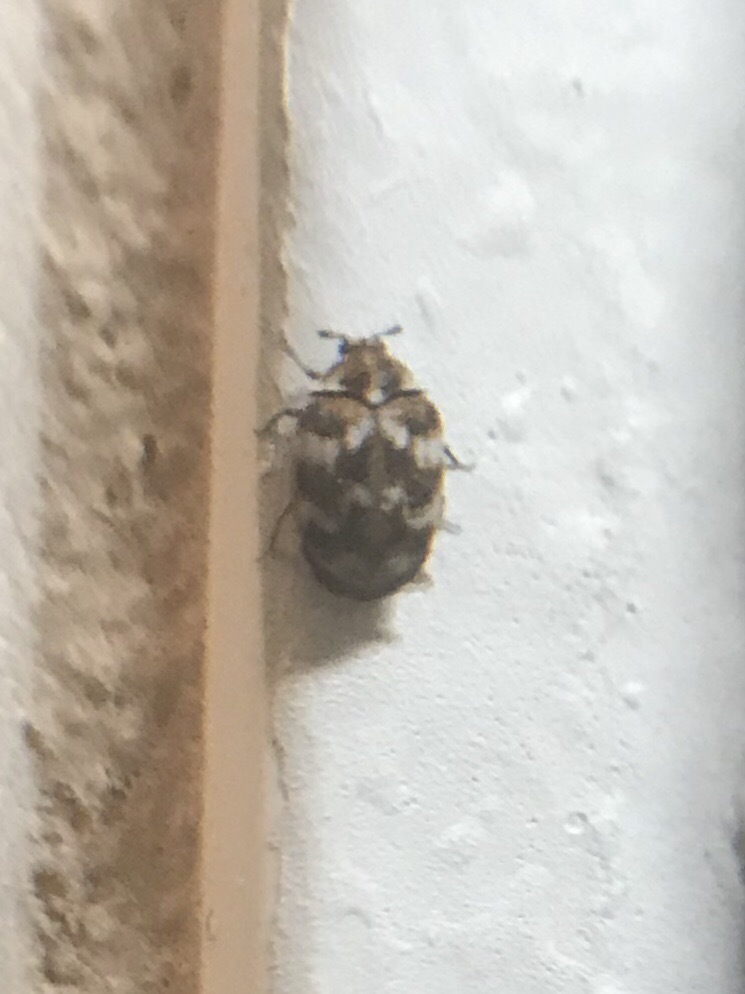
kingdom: Animalia
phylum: Arthropoda
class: Insecta
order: Coleoptera
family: Dermestidae
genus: Anthrenus
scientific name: Anthrenus verbasci
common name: Varied carpet beetle
